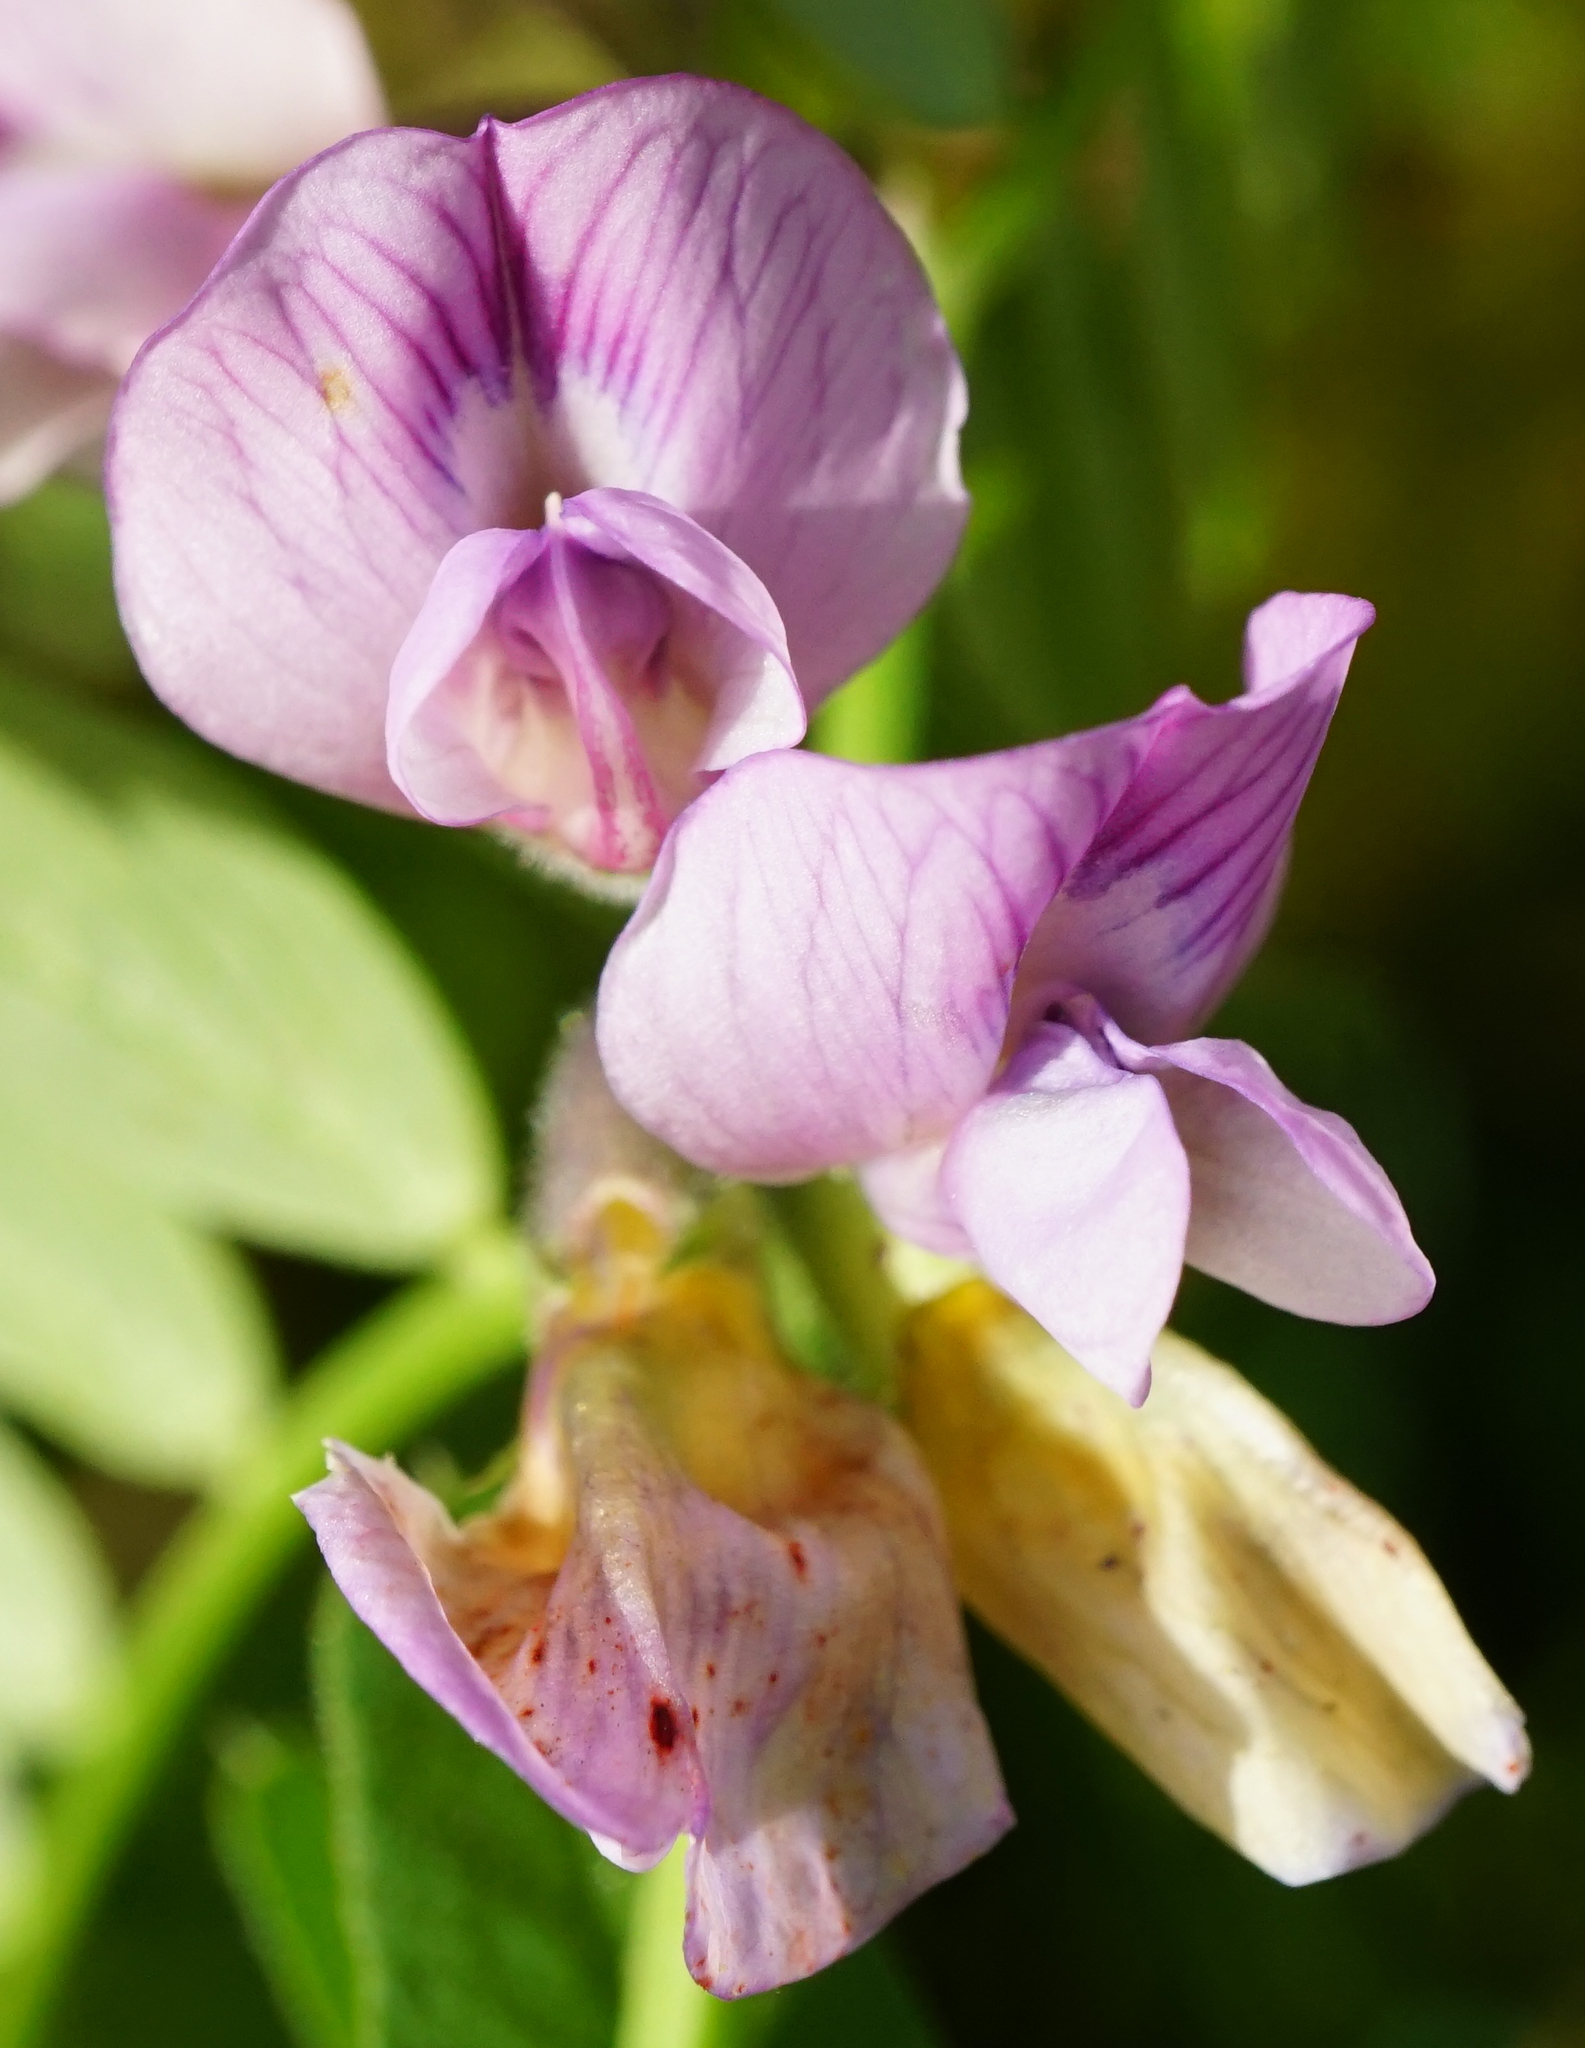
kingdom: Plantae
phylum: Tracheophyta
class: Magnoliopsida
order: Fabales
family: Fabaceae
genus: Vicia
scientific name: Vicia sepium
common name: Bush vetch
